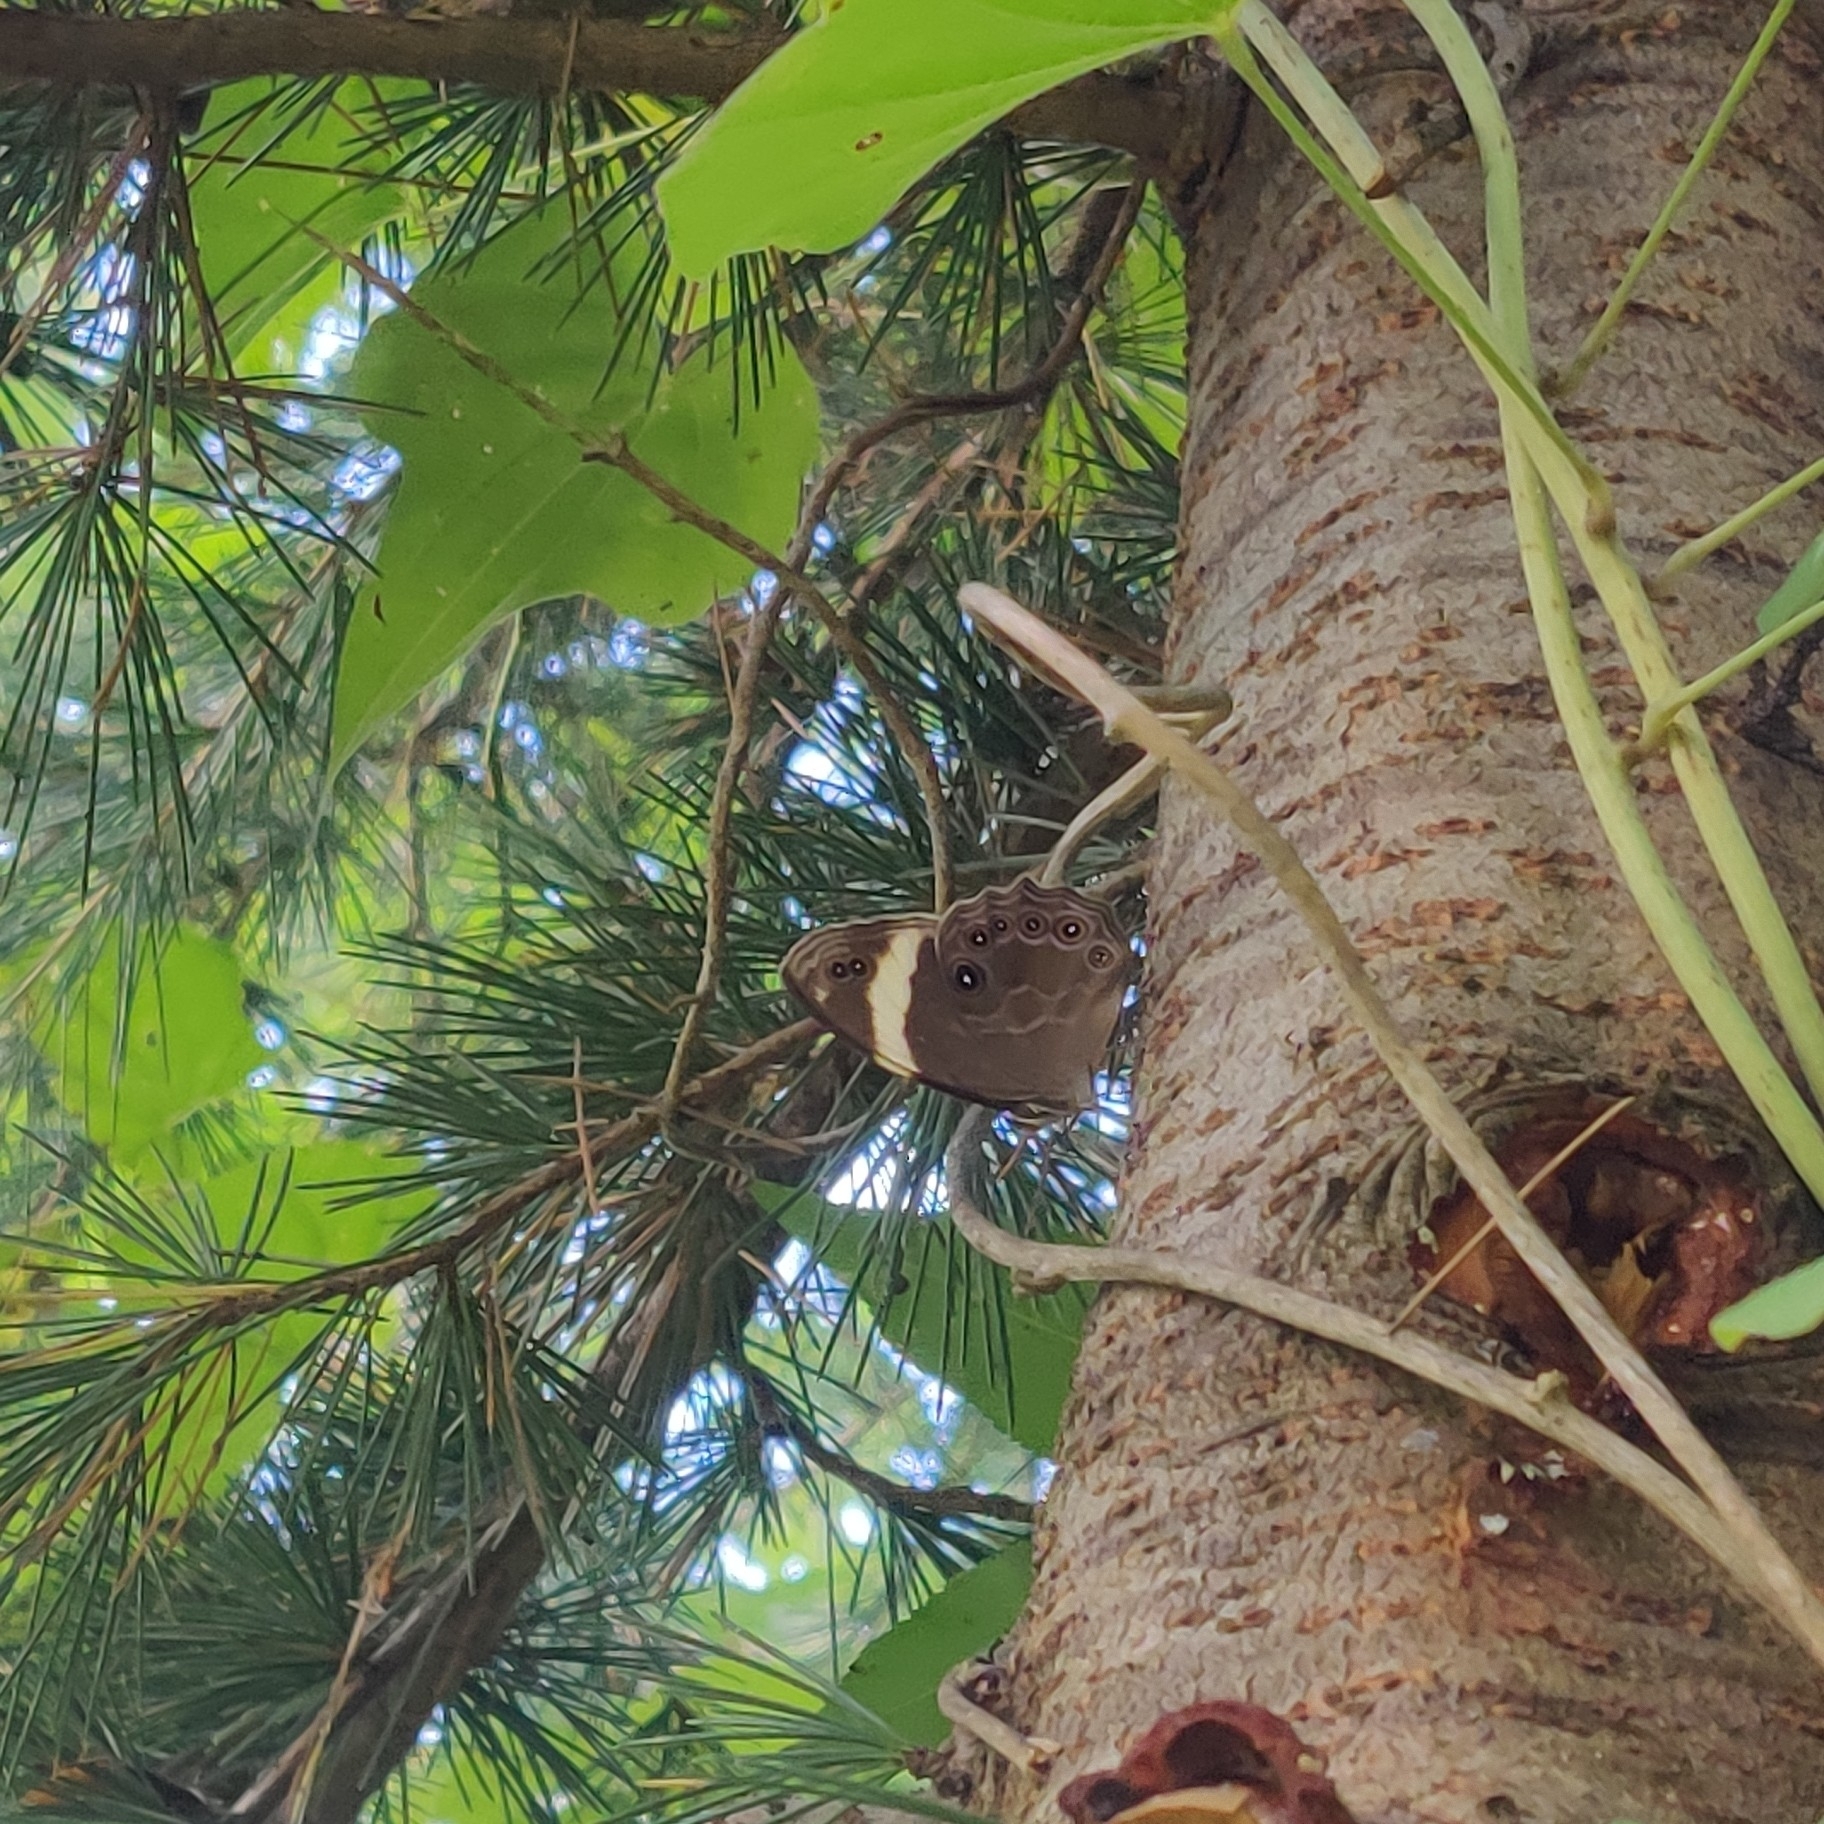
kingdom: Animalia
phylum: Arthropoda
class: Insecta
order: Lepidoptera
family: Nymphalidae
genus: Lethe
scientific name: Lethe verma
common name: Straight-banded treebrown
